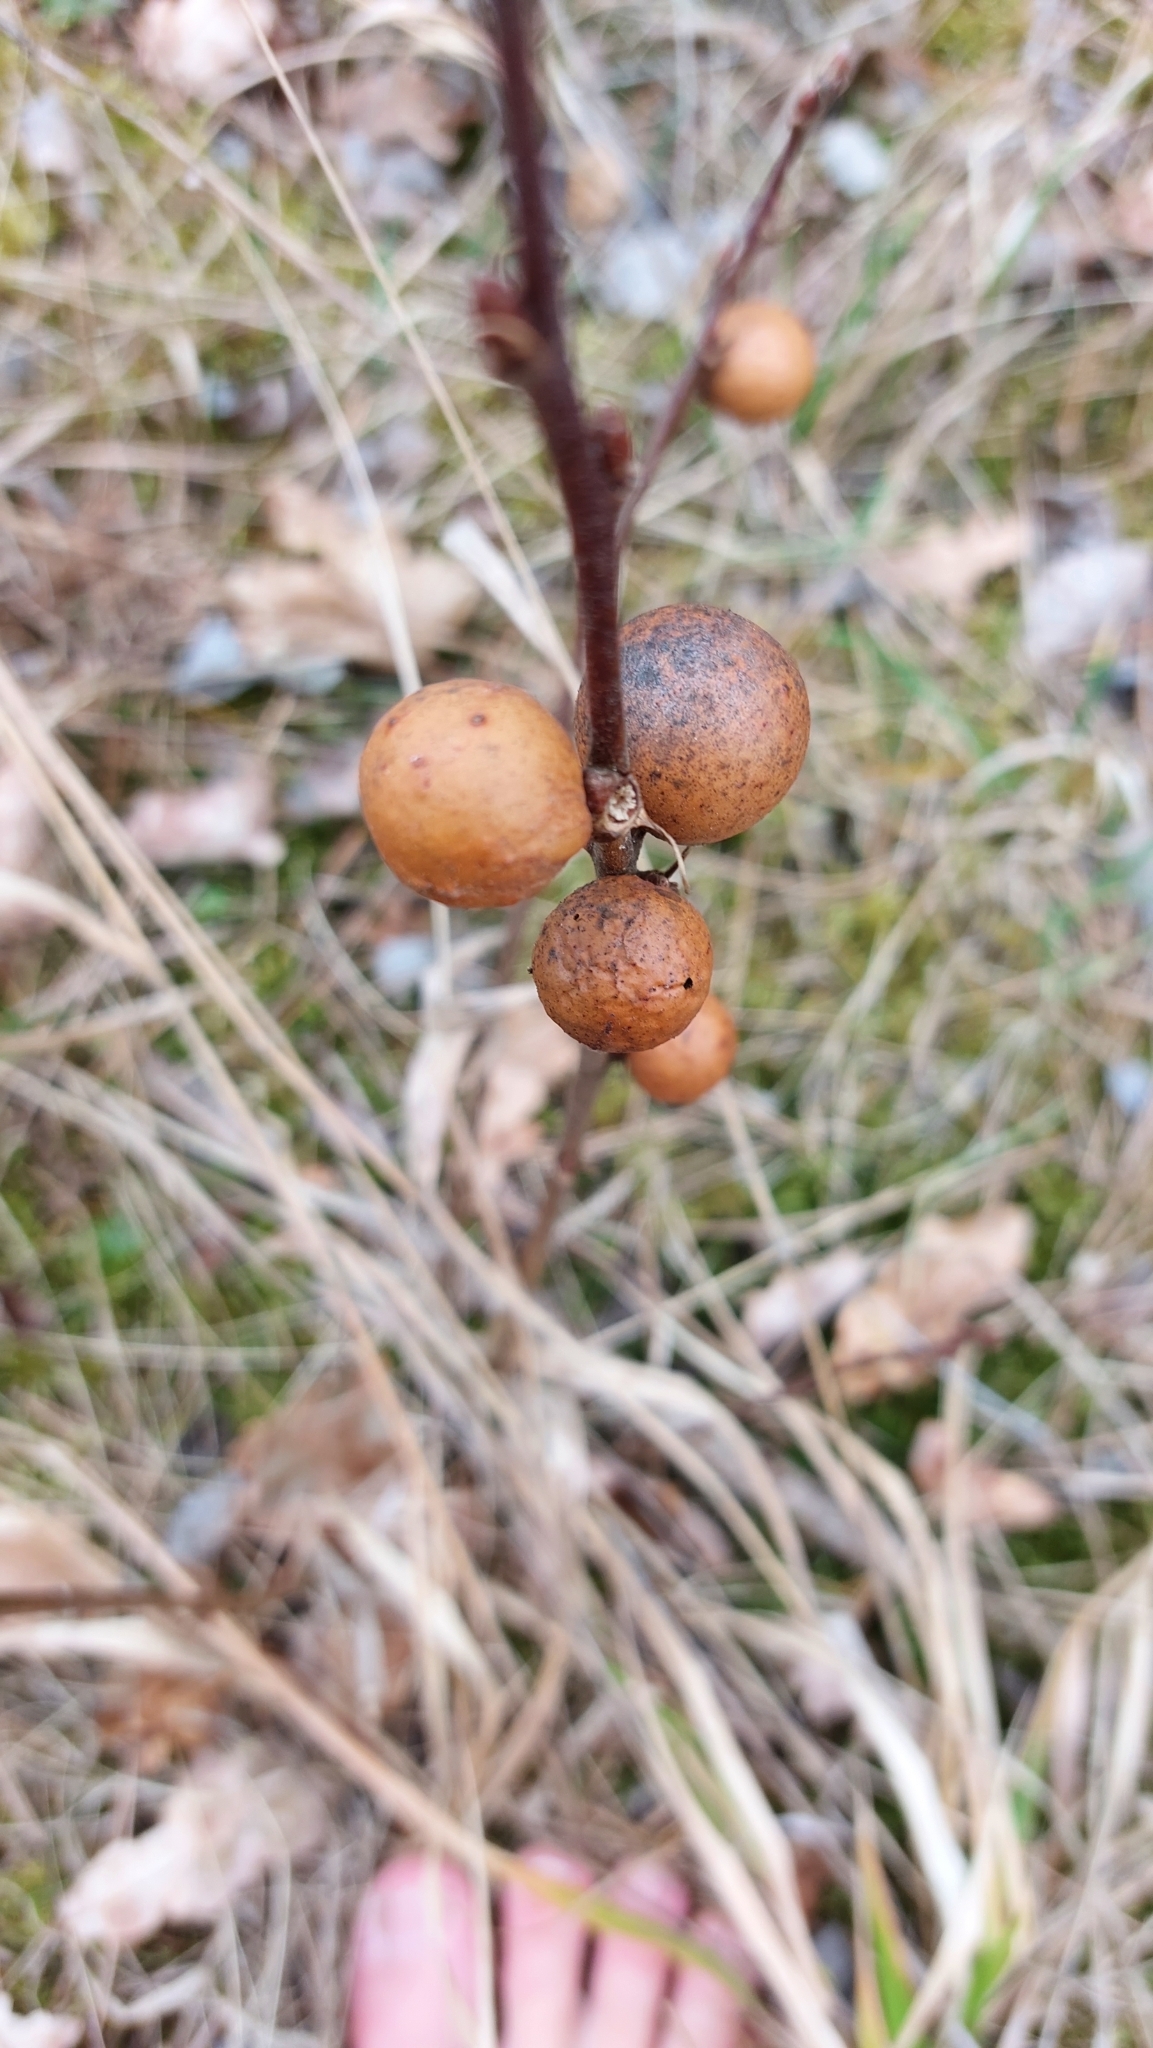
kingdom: Animalia
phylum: Arthropoda
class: Insecta
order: Hymenoptera
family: Cynipidae
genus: Andricus
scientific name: Andricus kollari
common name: Marble gall
